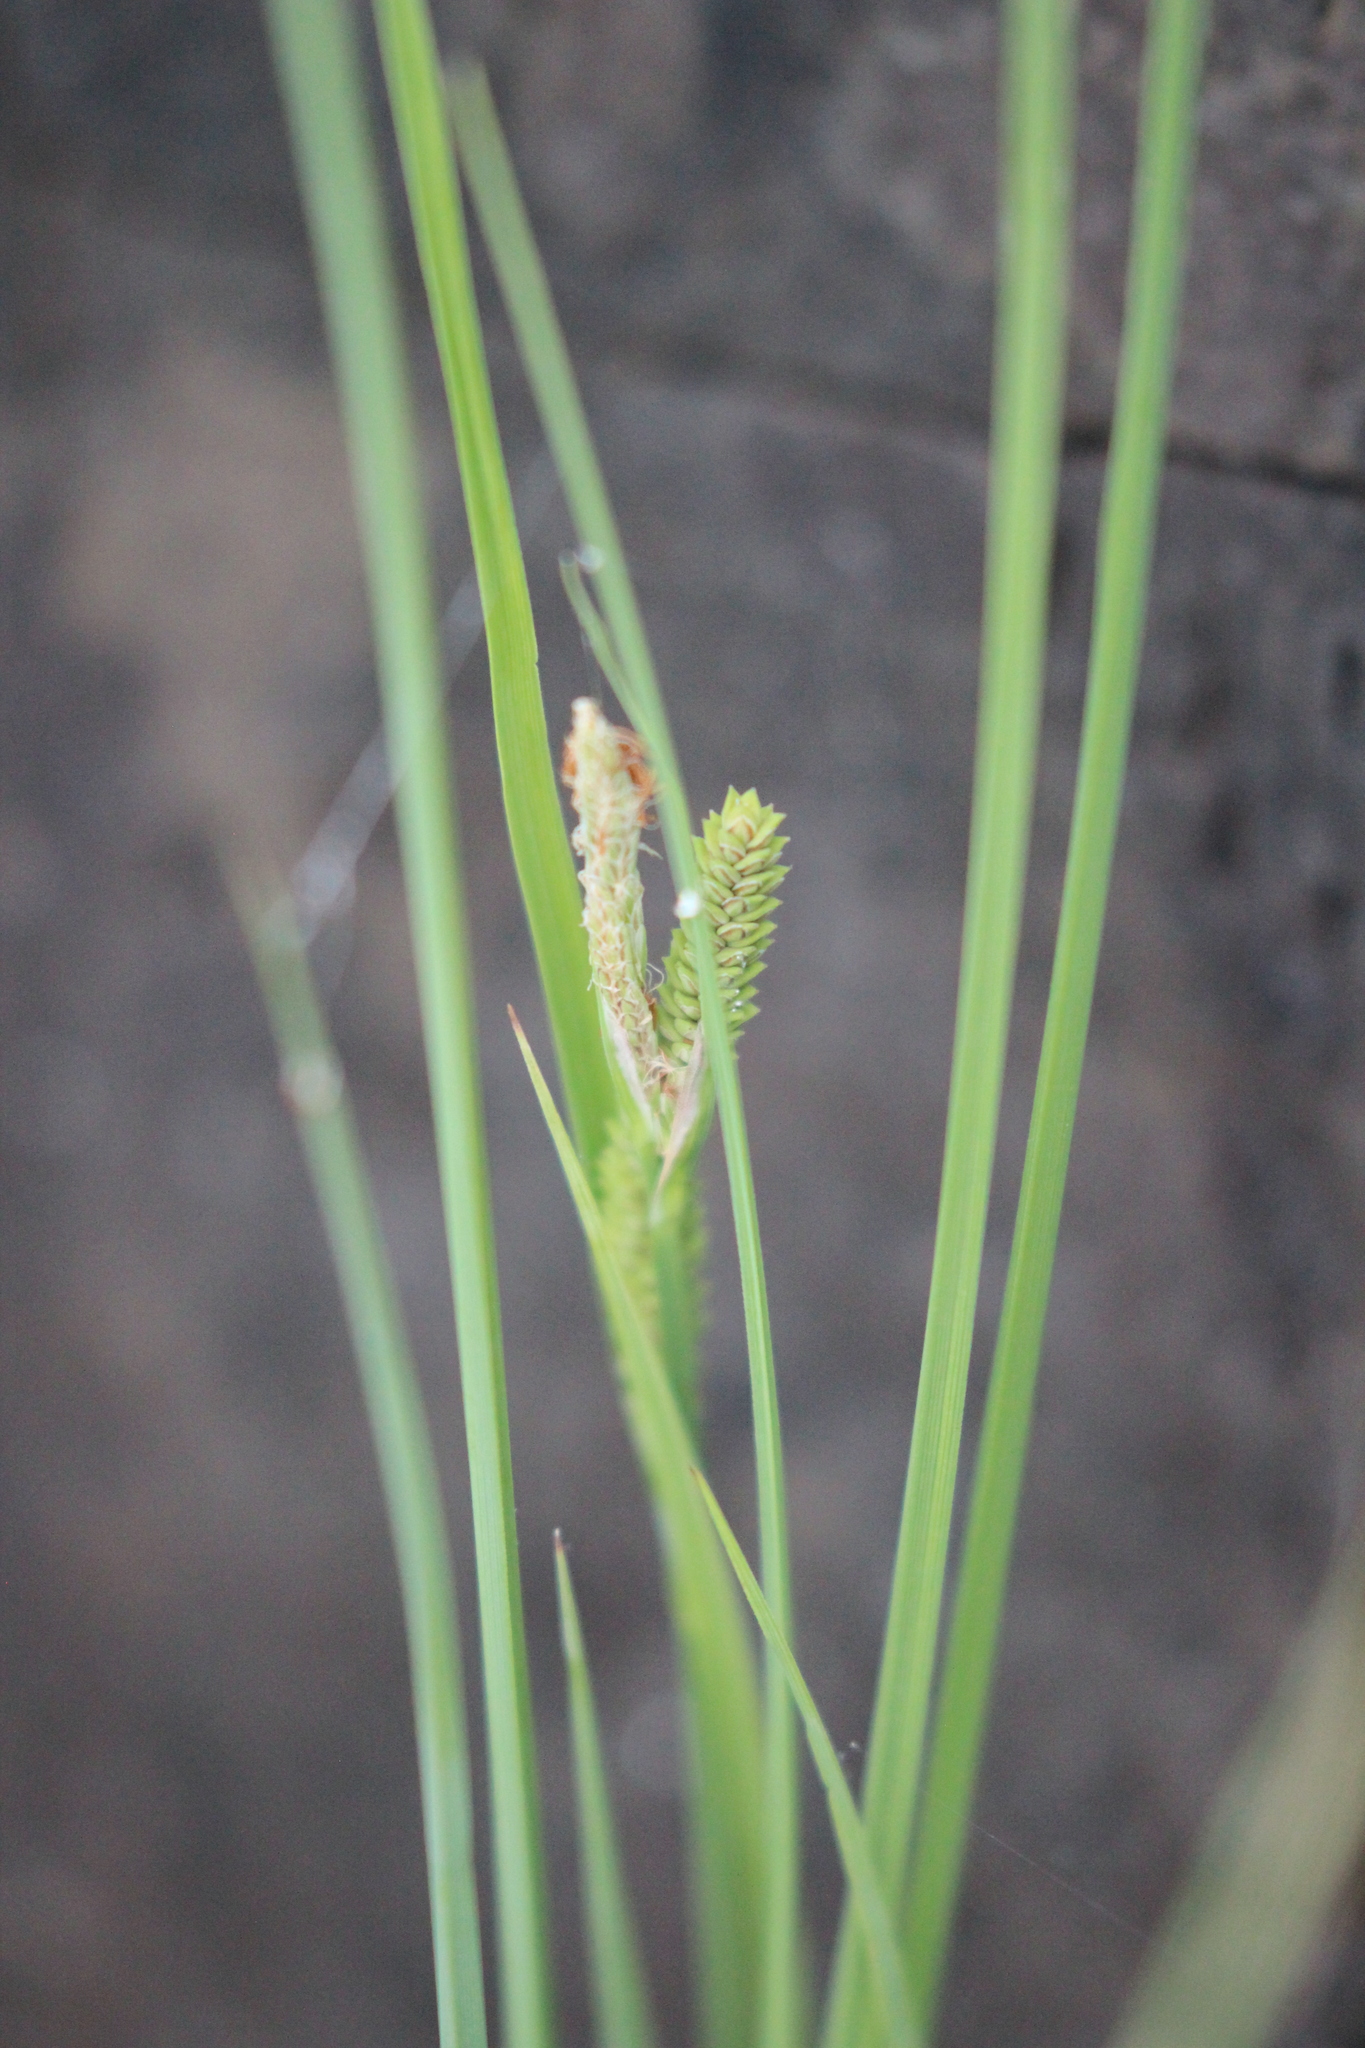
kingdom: Plantae
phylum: Tracheophyta
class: Liliopsida
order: Poales
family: Cyperaceae
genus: Carex
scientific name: Carex lenticularis
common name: Lakeshore sedge
